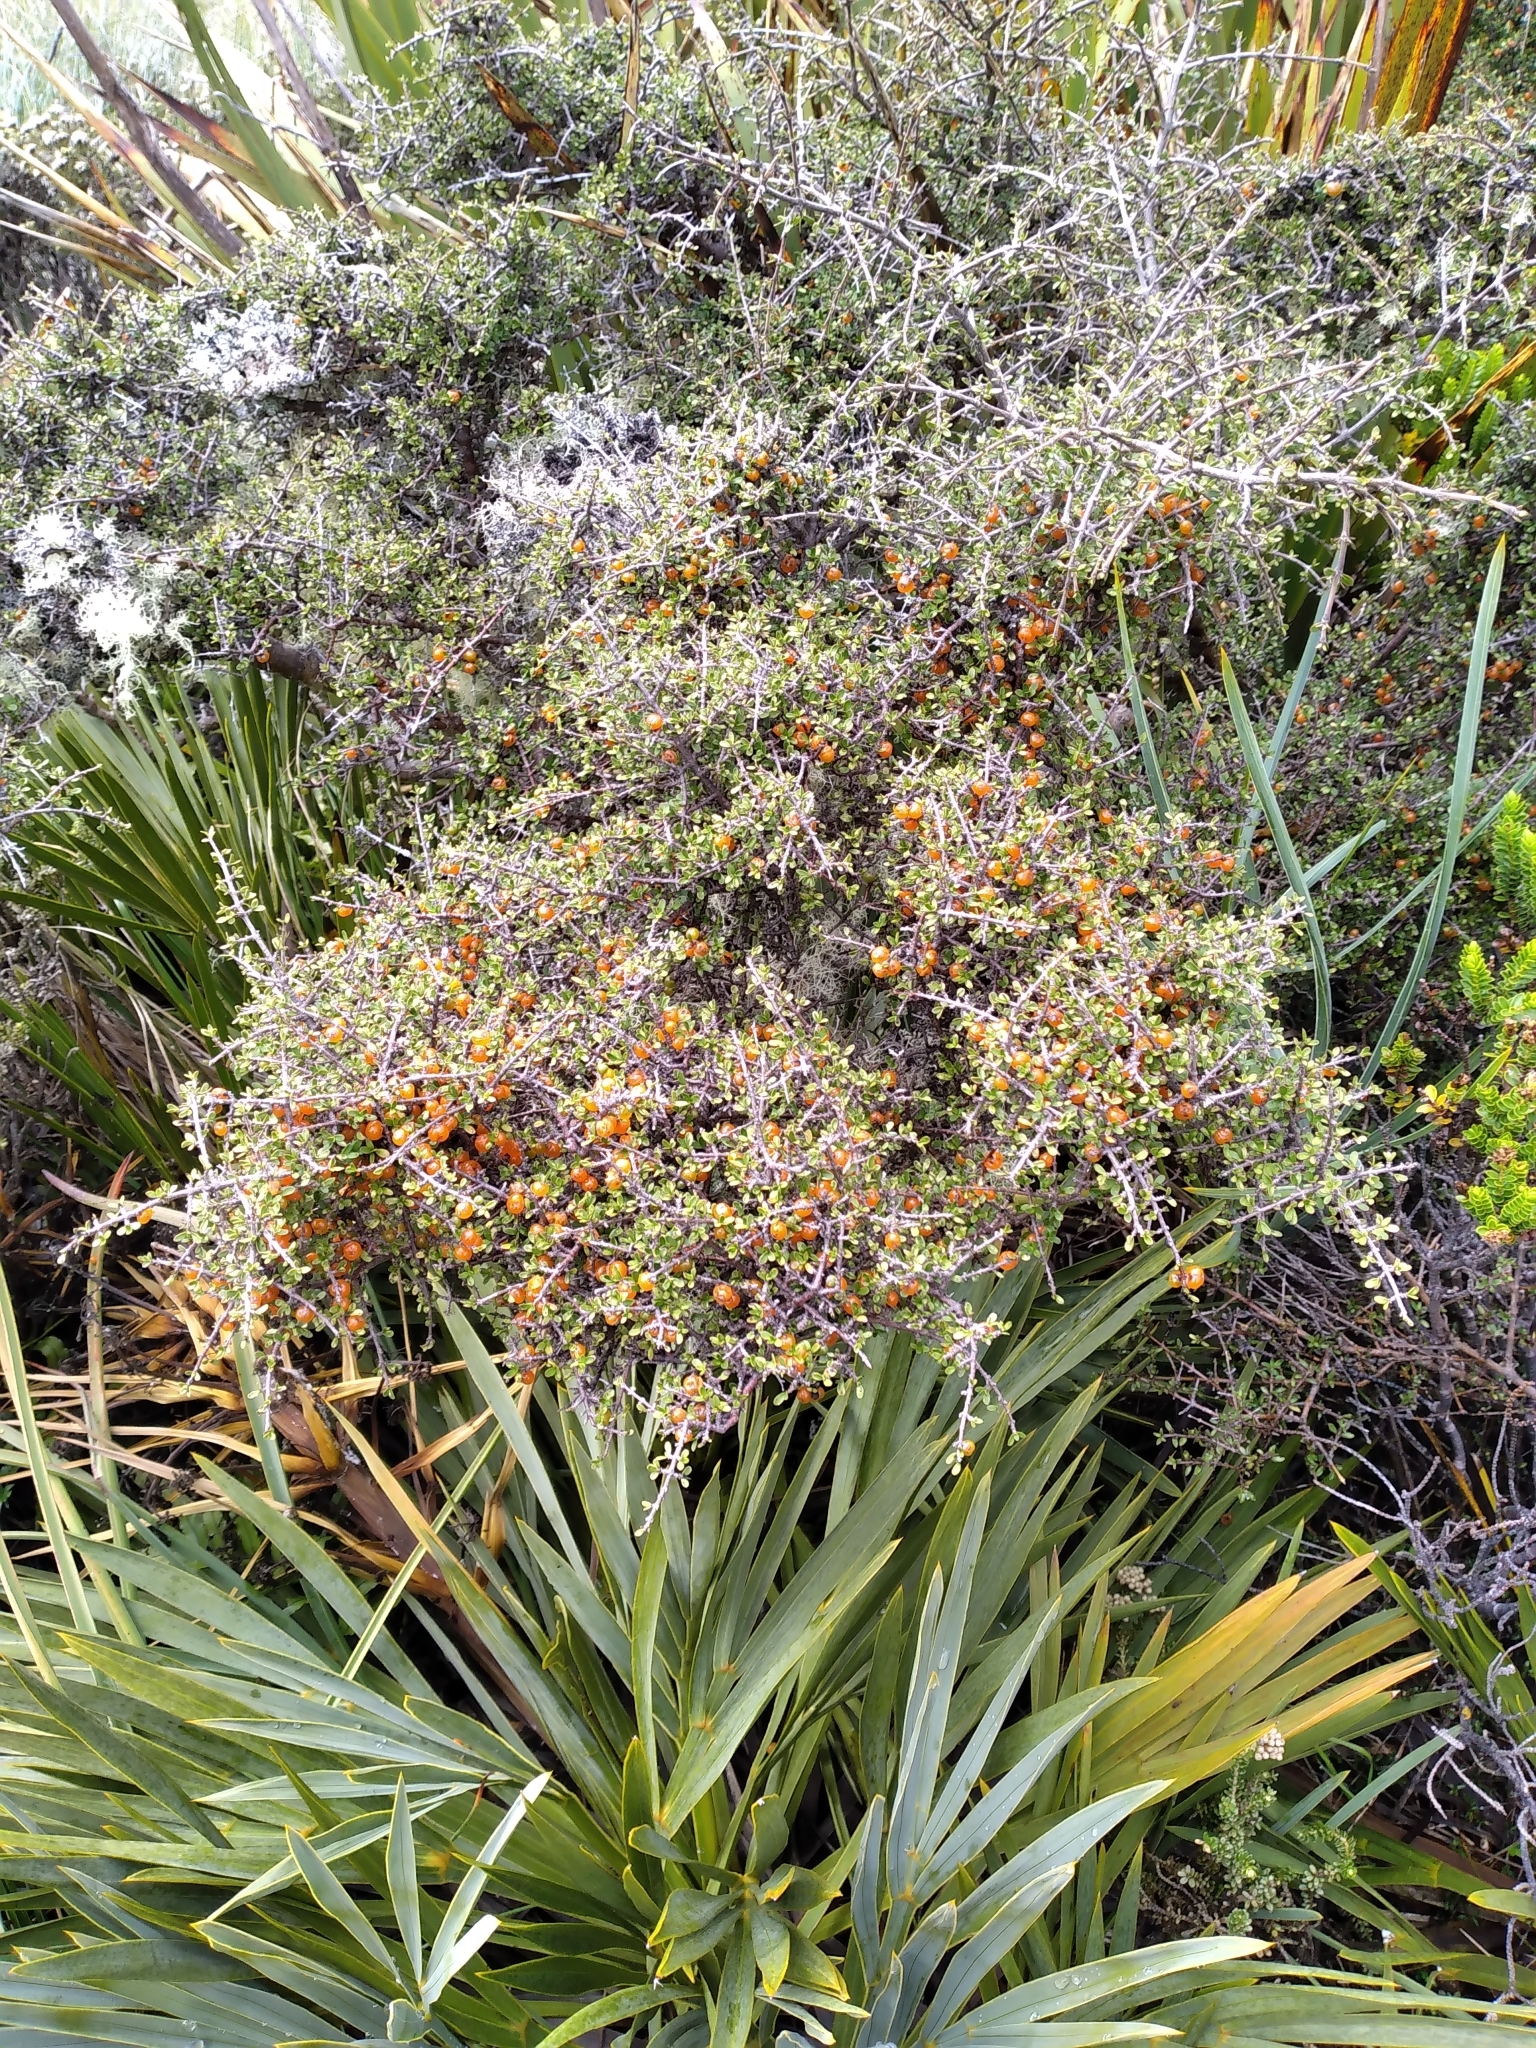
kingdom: Plantae
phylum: Tracheophyta
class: Magnoliopsida
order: Gentianales
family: Rubiaceae
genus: Coprosma
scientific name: Coprosma dumosa
